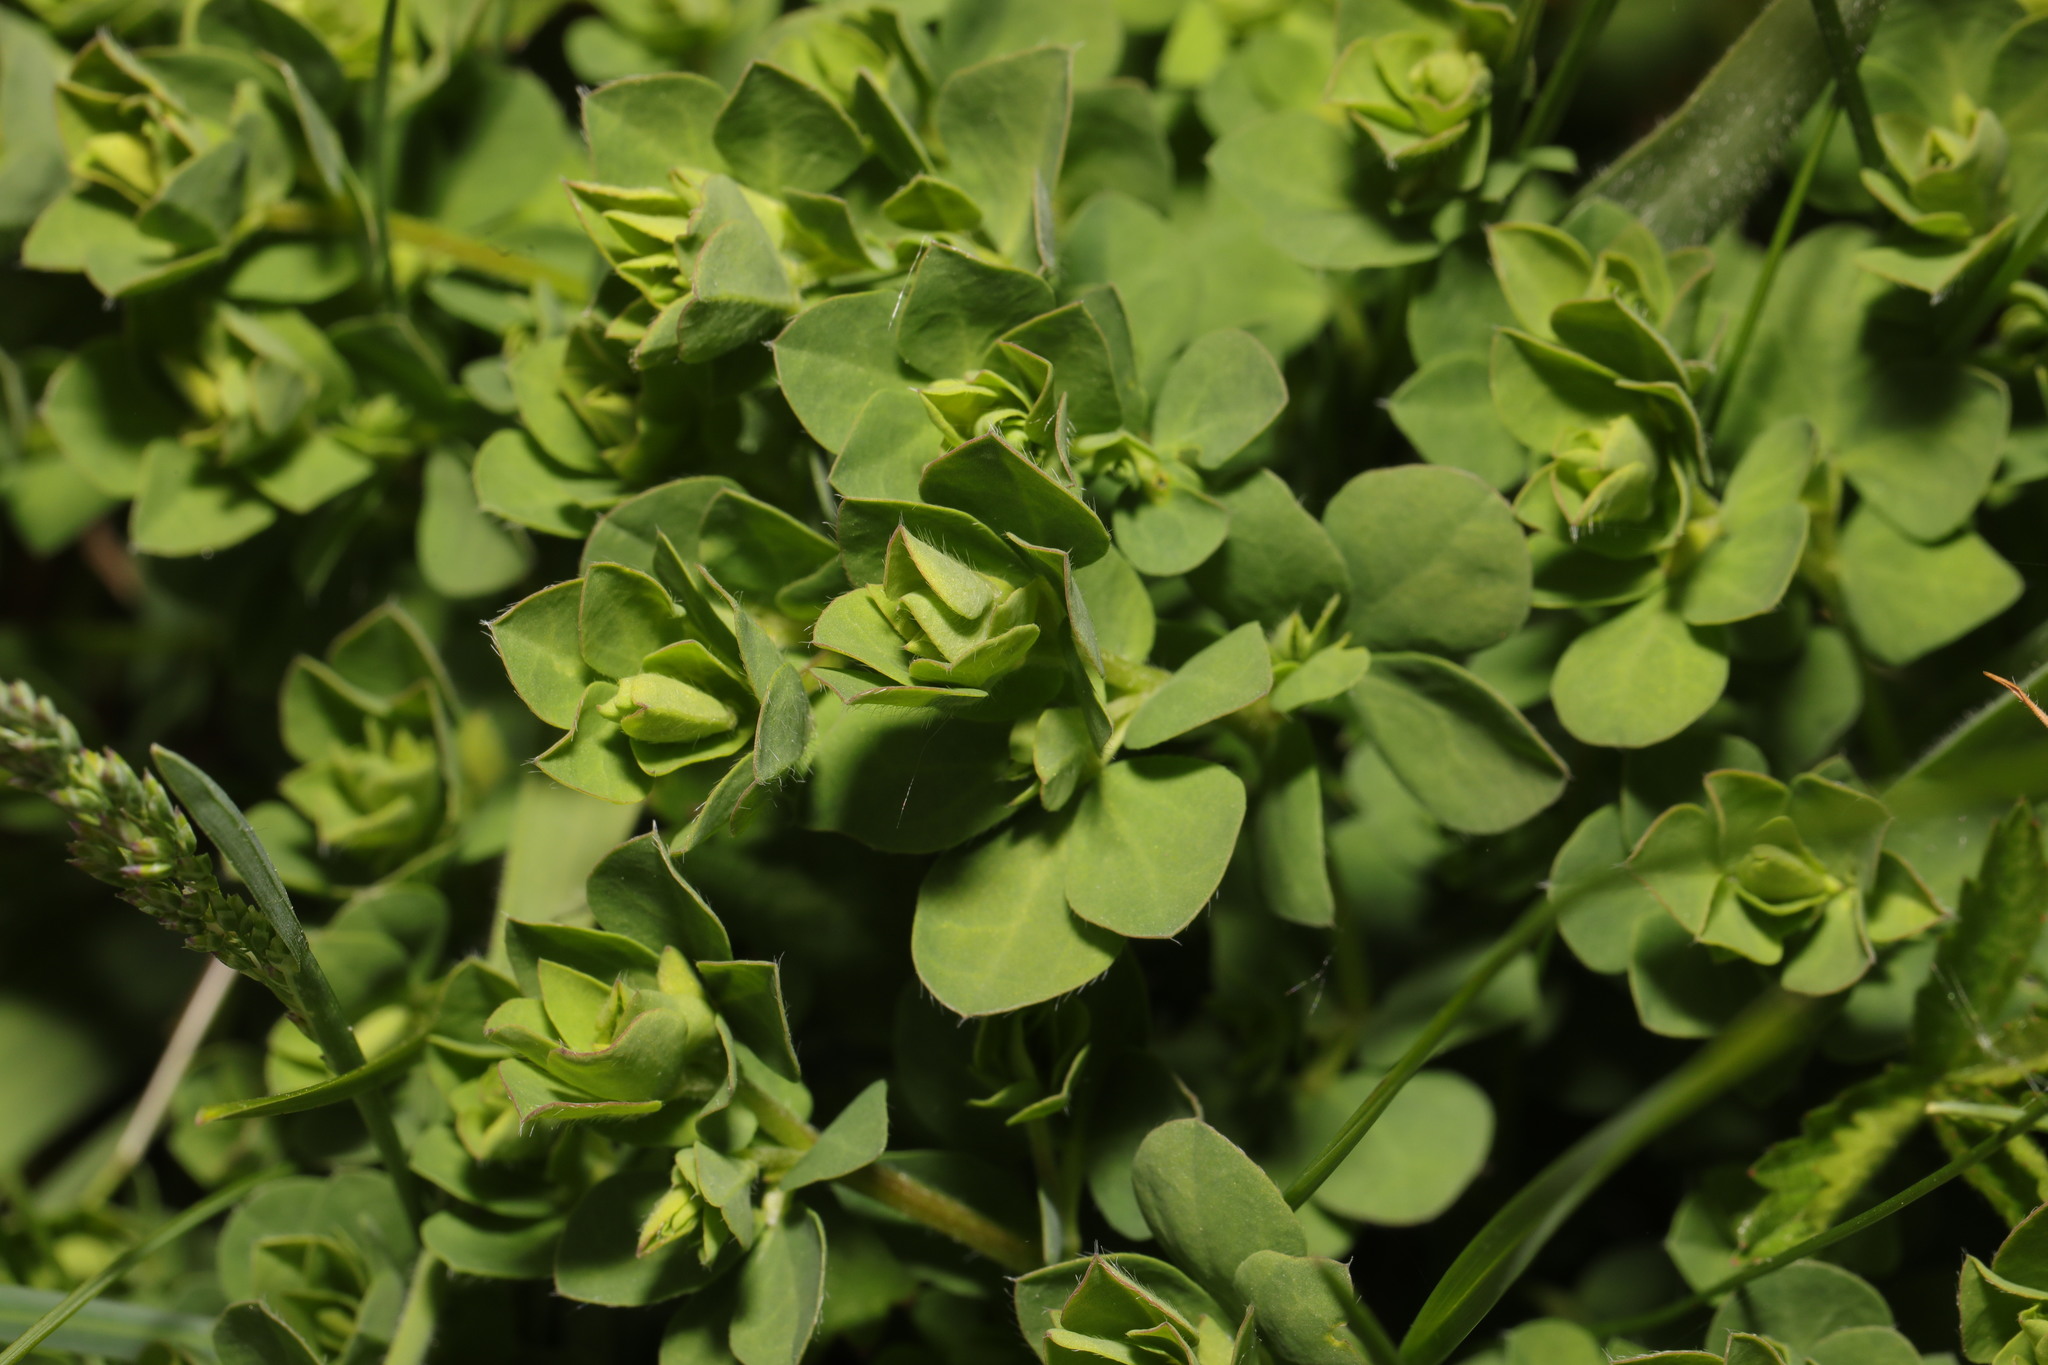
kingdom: Plantae
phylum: Tracheophyta
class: Magnoliopsida
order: Fabales
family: Fabaceae
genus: Lotus
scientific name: Lotus corniculatus
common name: Common bird's-foot-trefoil
